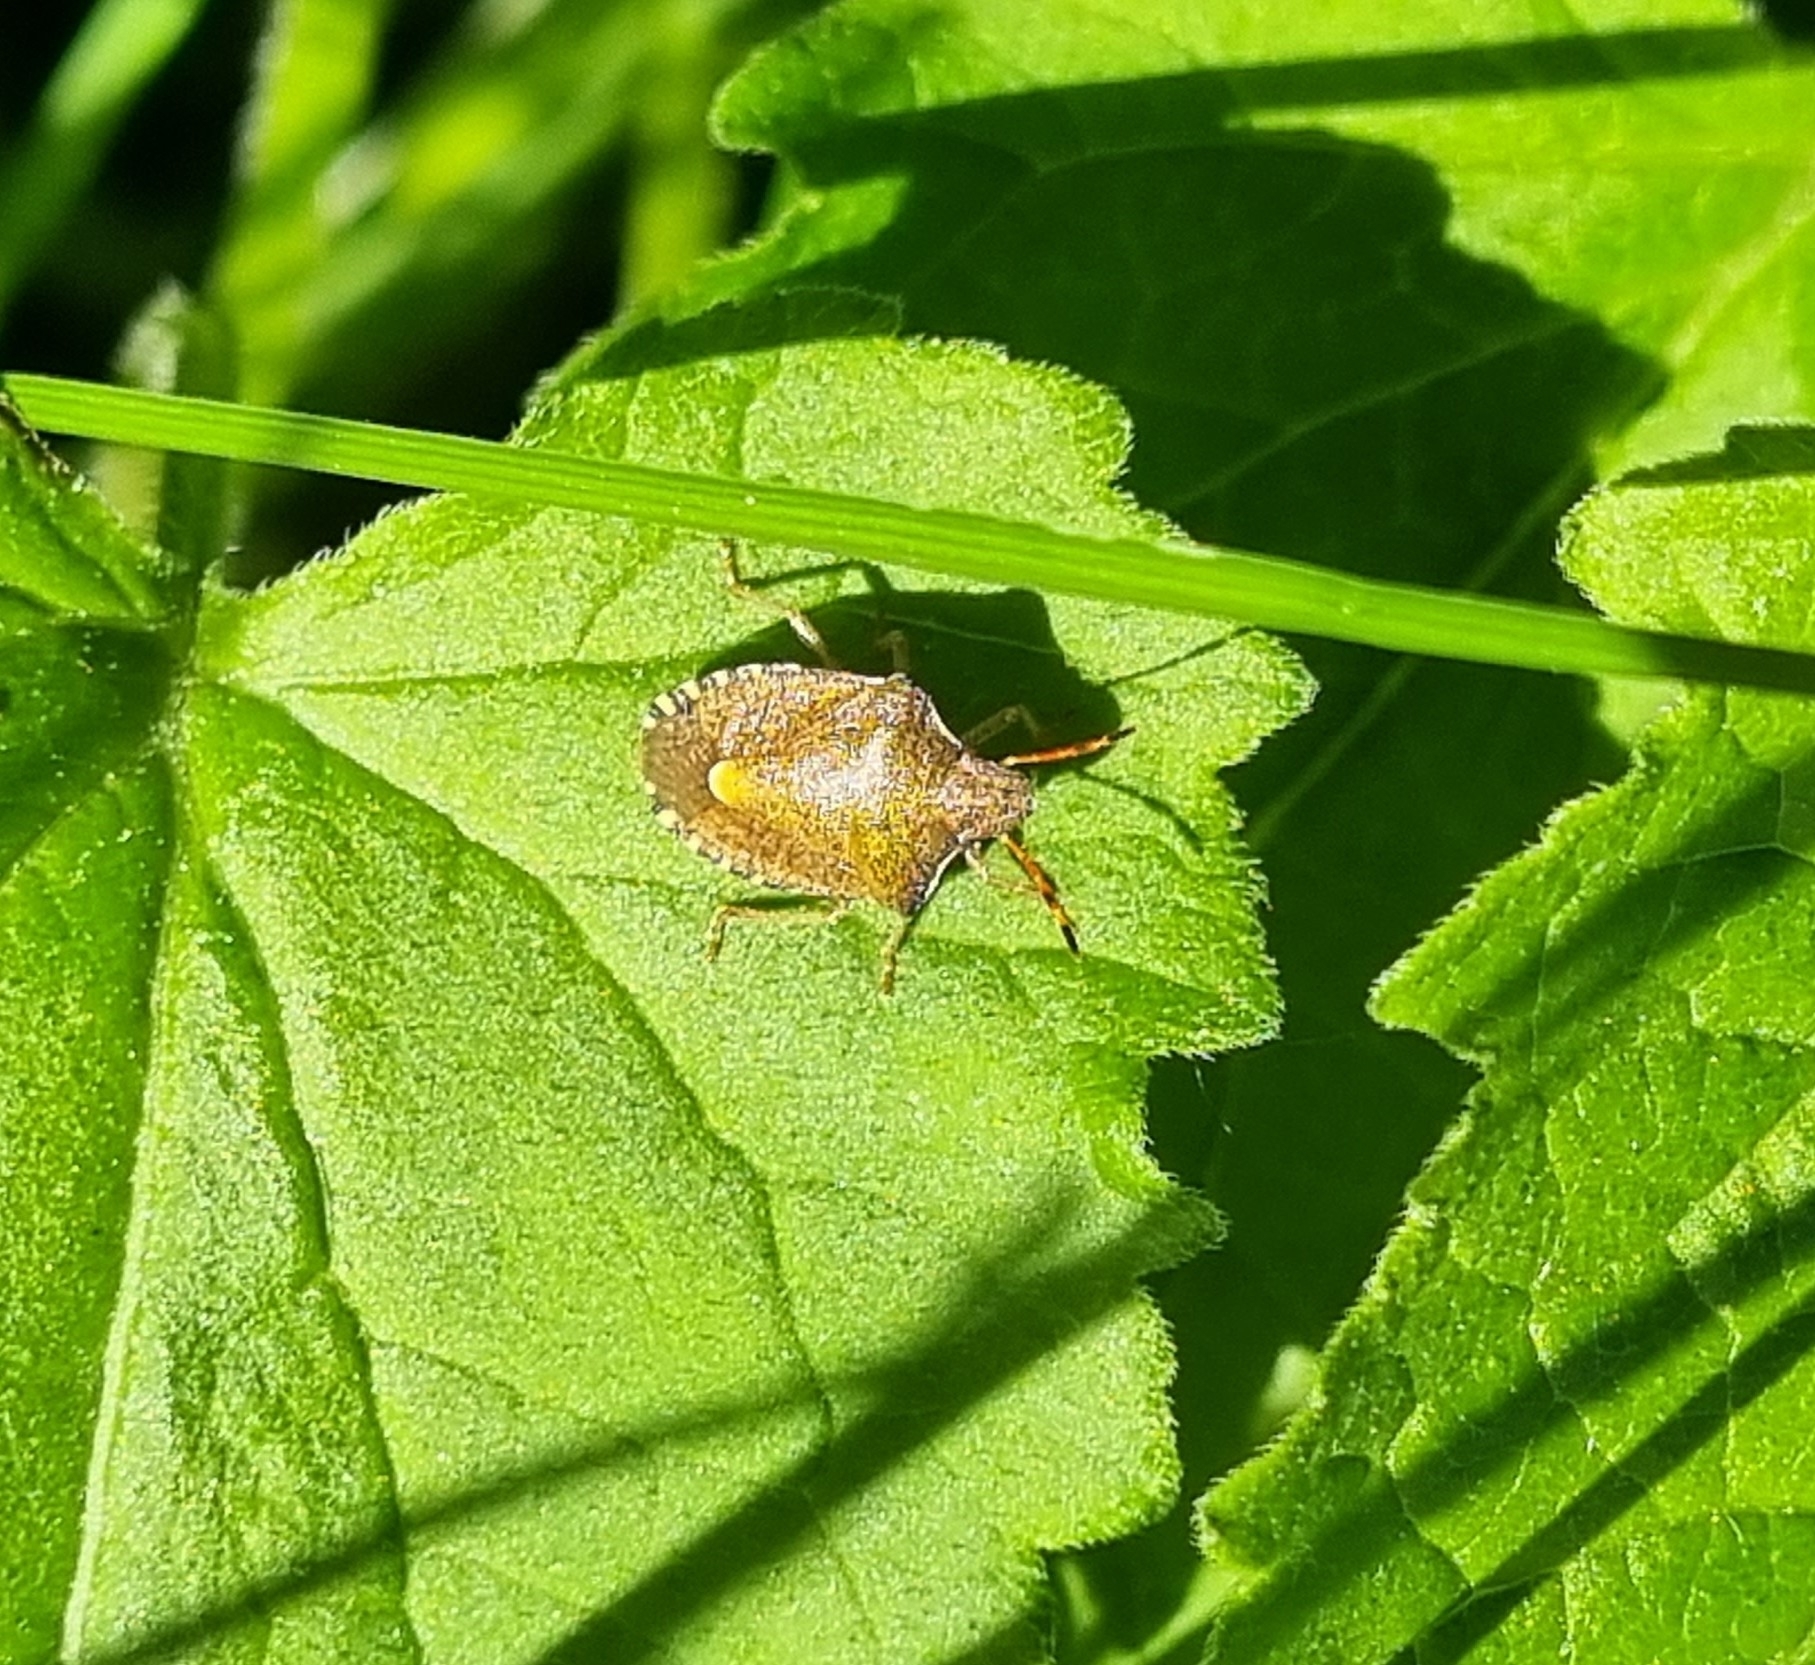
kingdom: Animalia
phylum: Arthropoda
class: Insecta
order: Hemiptera
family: Pentatomidae
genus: Holcostethus
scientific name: Holcostethus strictus
